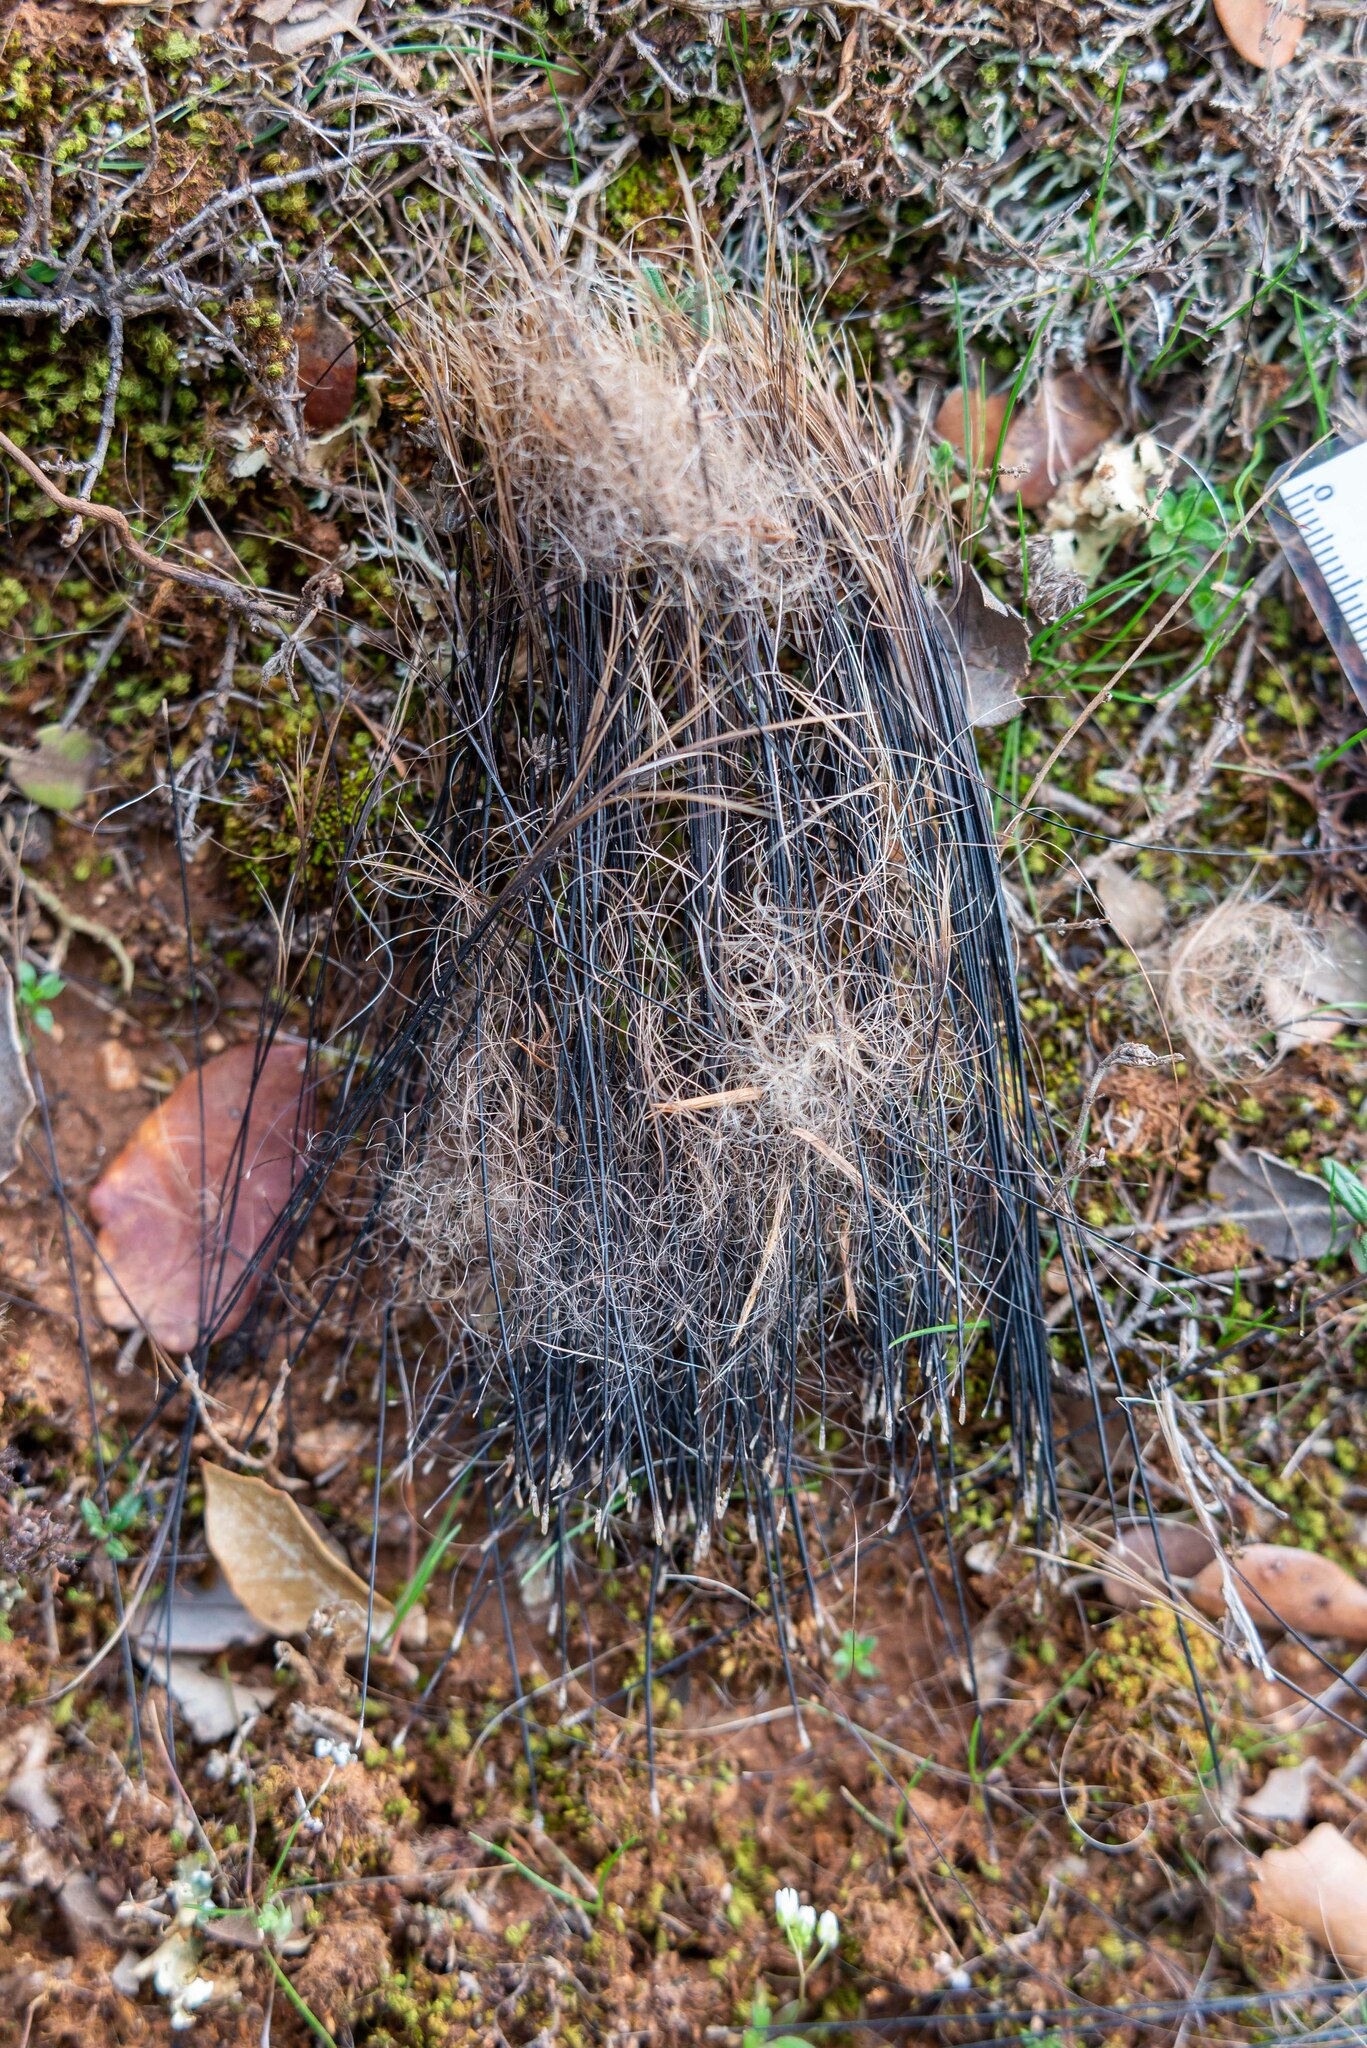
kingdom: Animalia
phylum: Chordata
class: Mammalia
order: Artiodactyla
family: Suidae
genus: Sus
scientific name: Sus scrofa
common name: Wild boar
